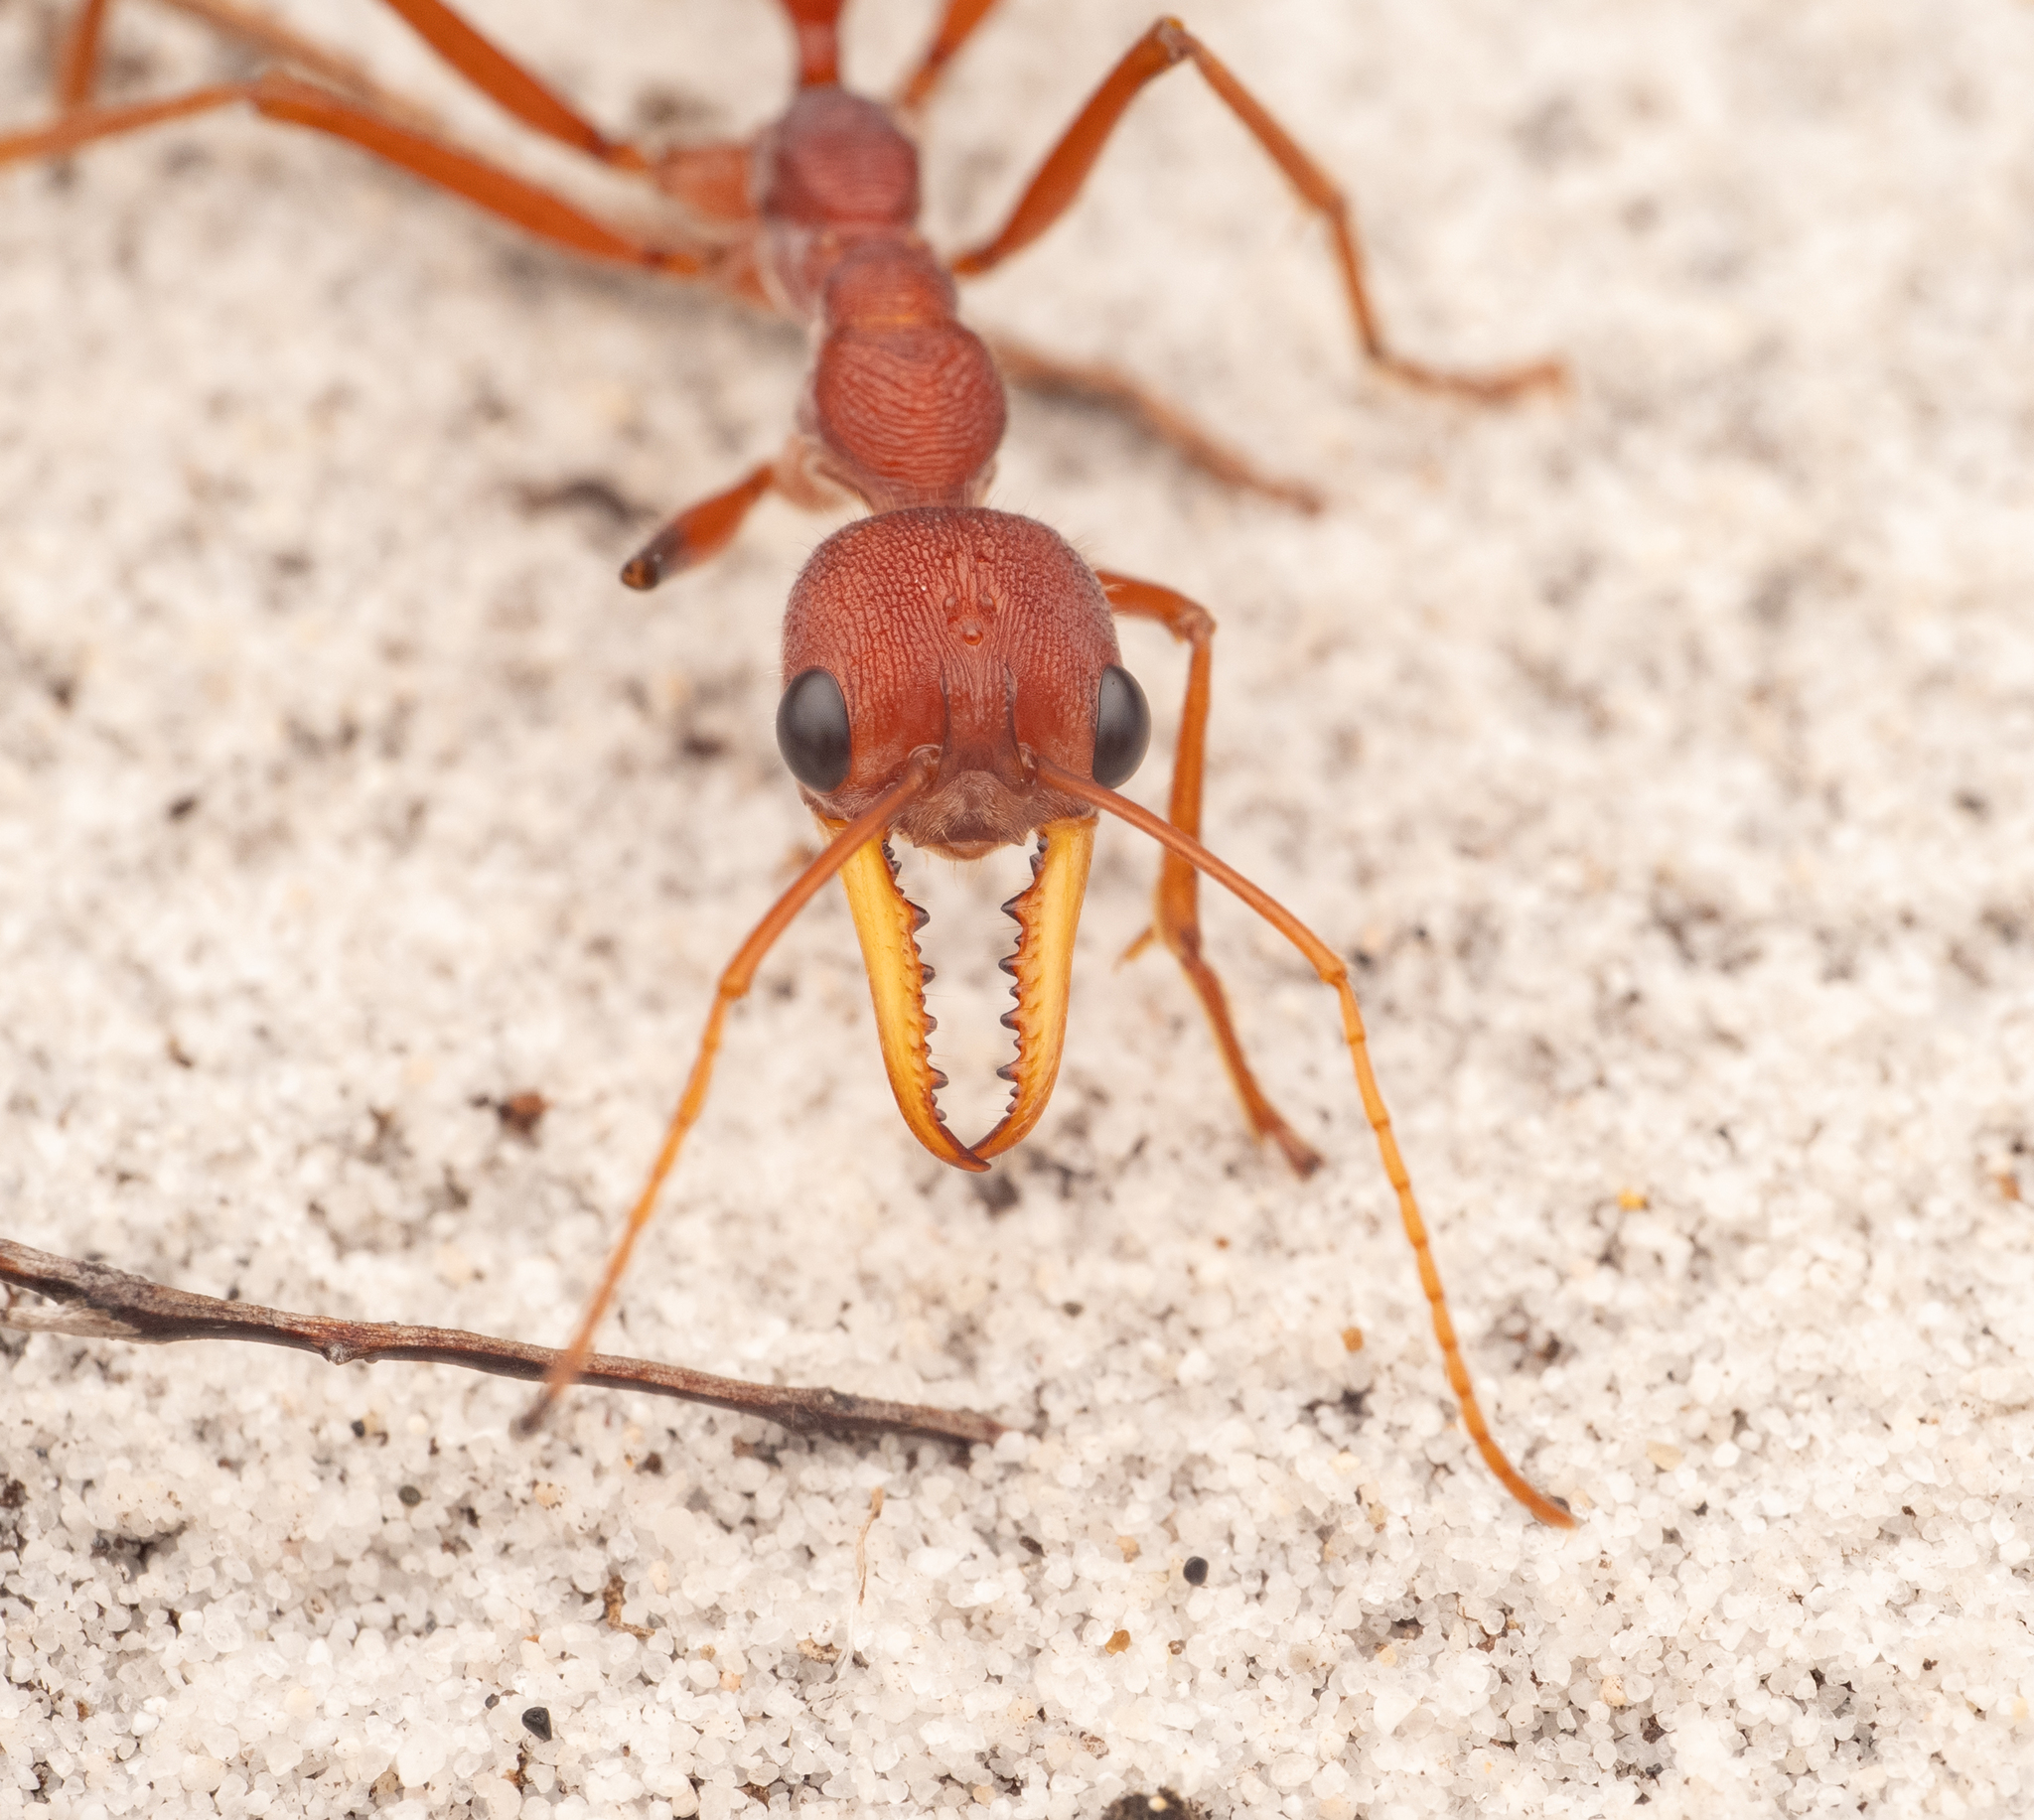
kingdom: Animalia
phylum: Arthropoda
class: Insecta
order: Hymenoptera
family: Formicidae
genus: Myrmecia
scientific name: Myrmecia gulosa
